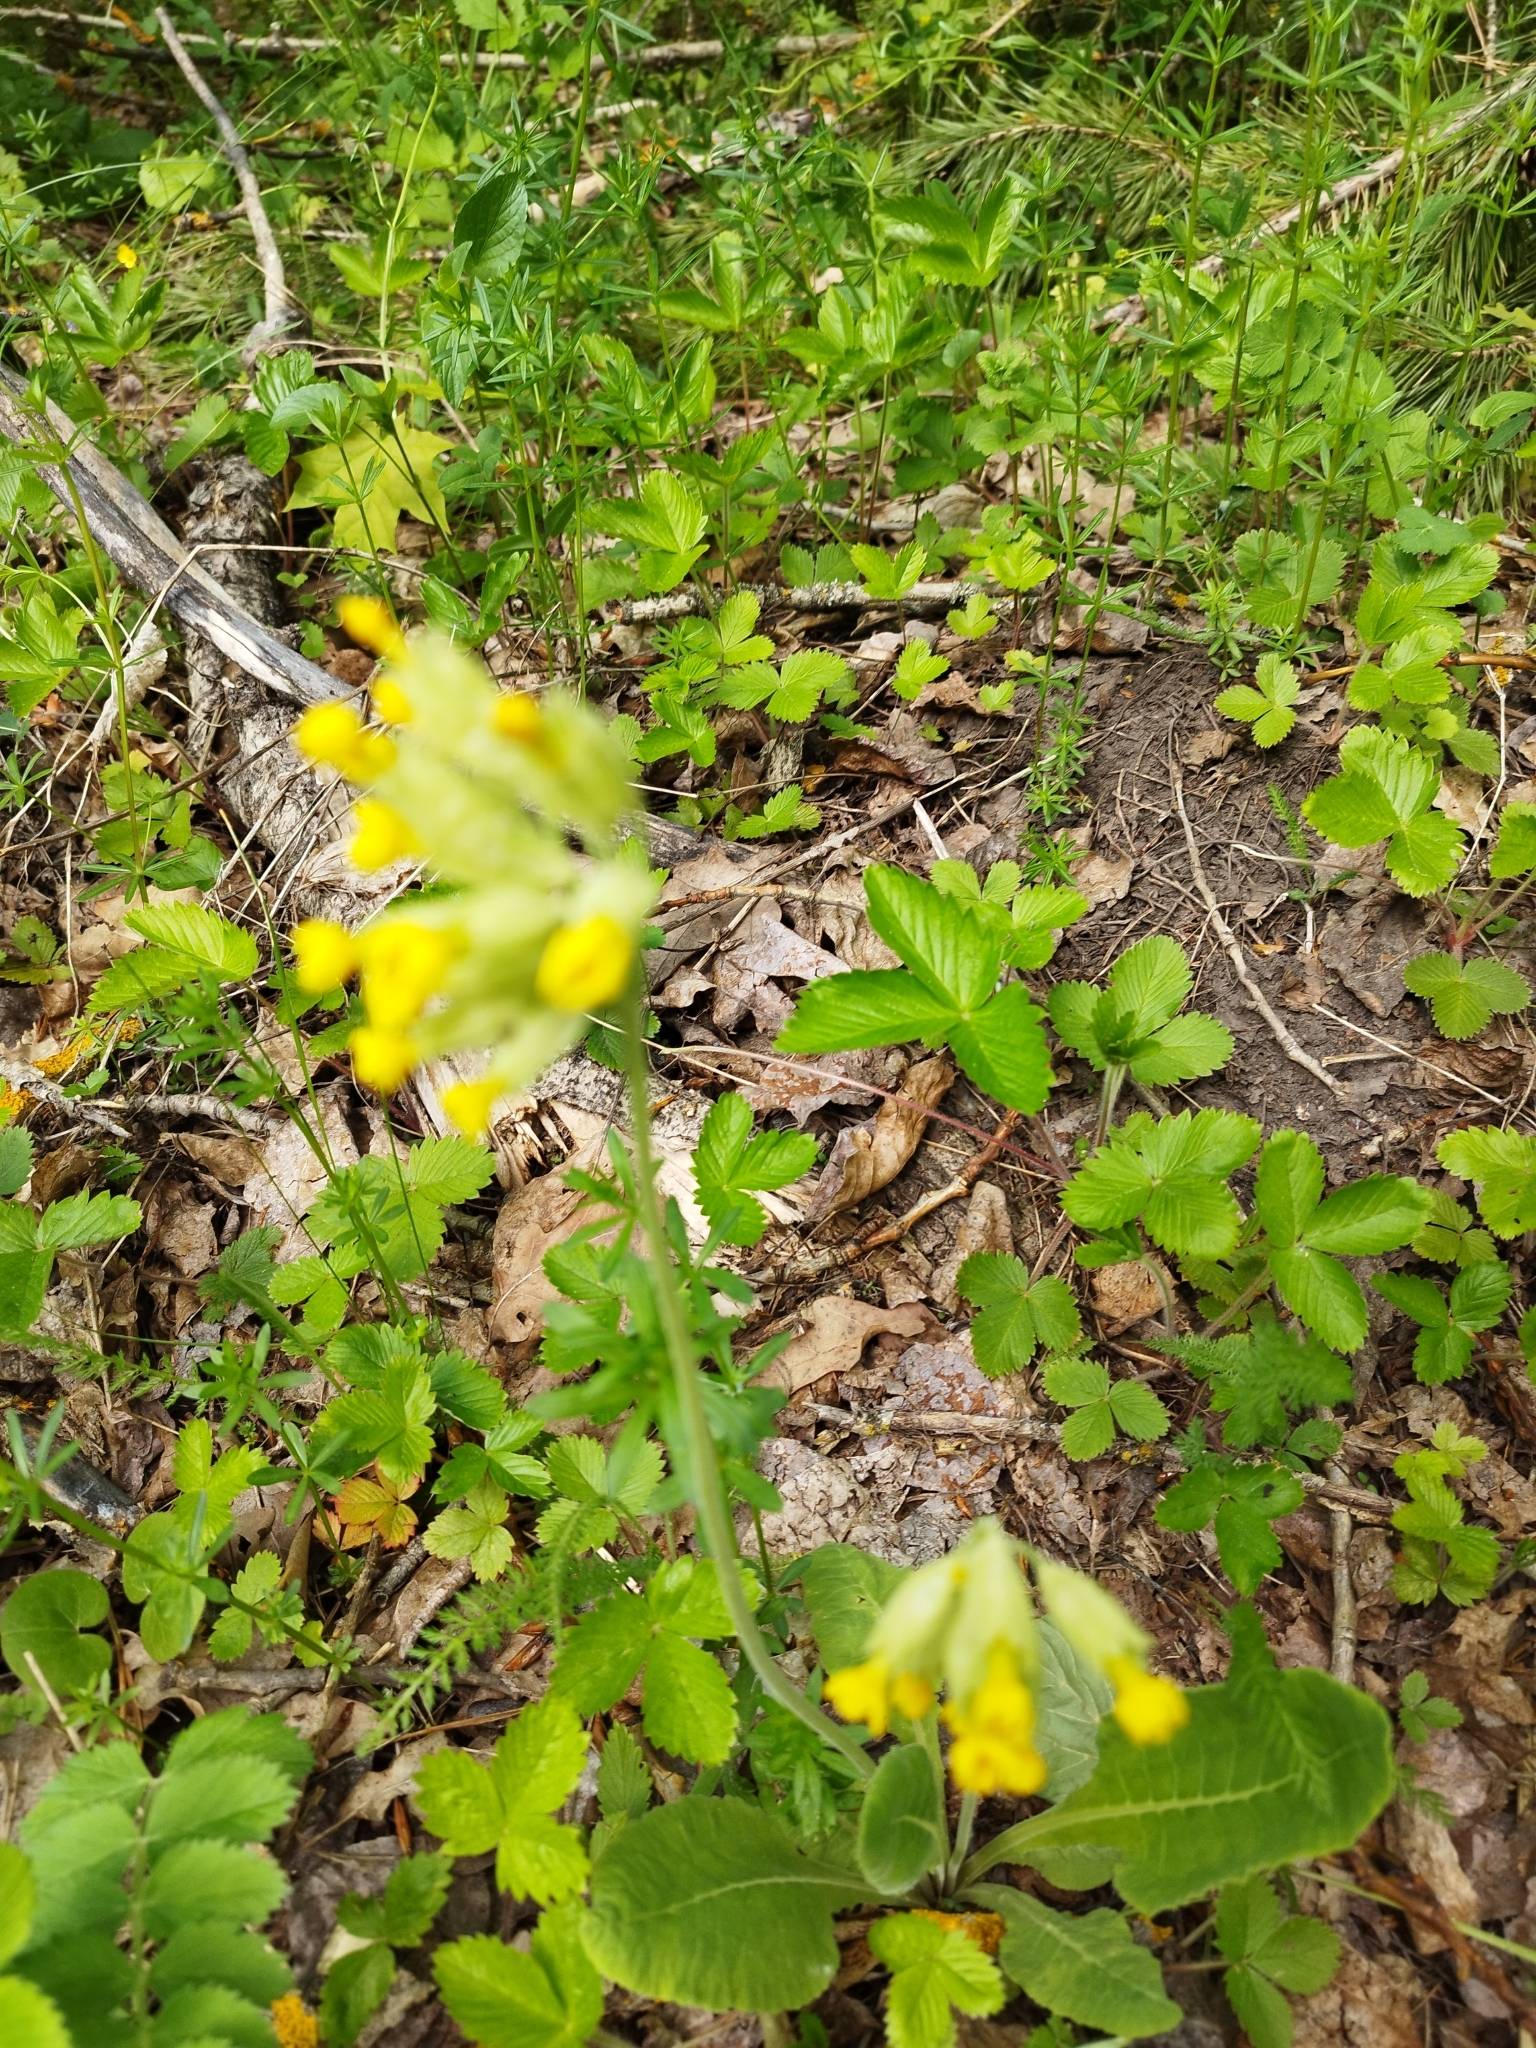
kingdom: Plantae
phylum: Tracheophyta
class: Magnoliopsida
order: Ericales
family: Primulaceae
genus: Primula
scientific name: Primula veris
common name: Cowslip
